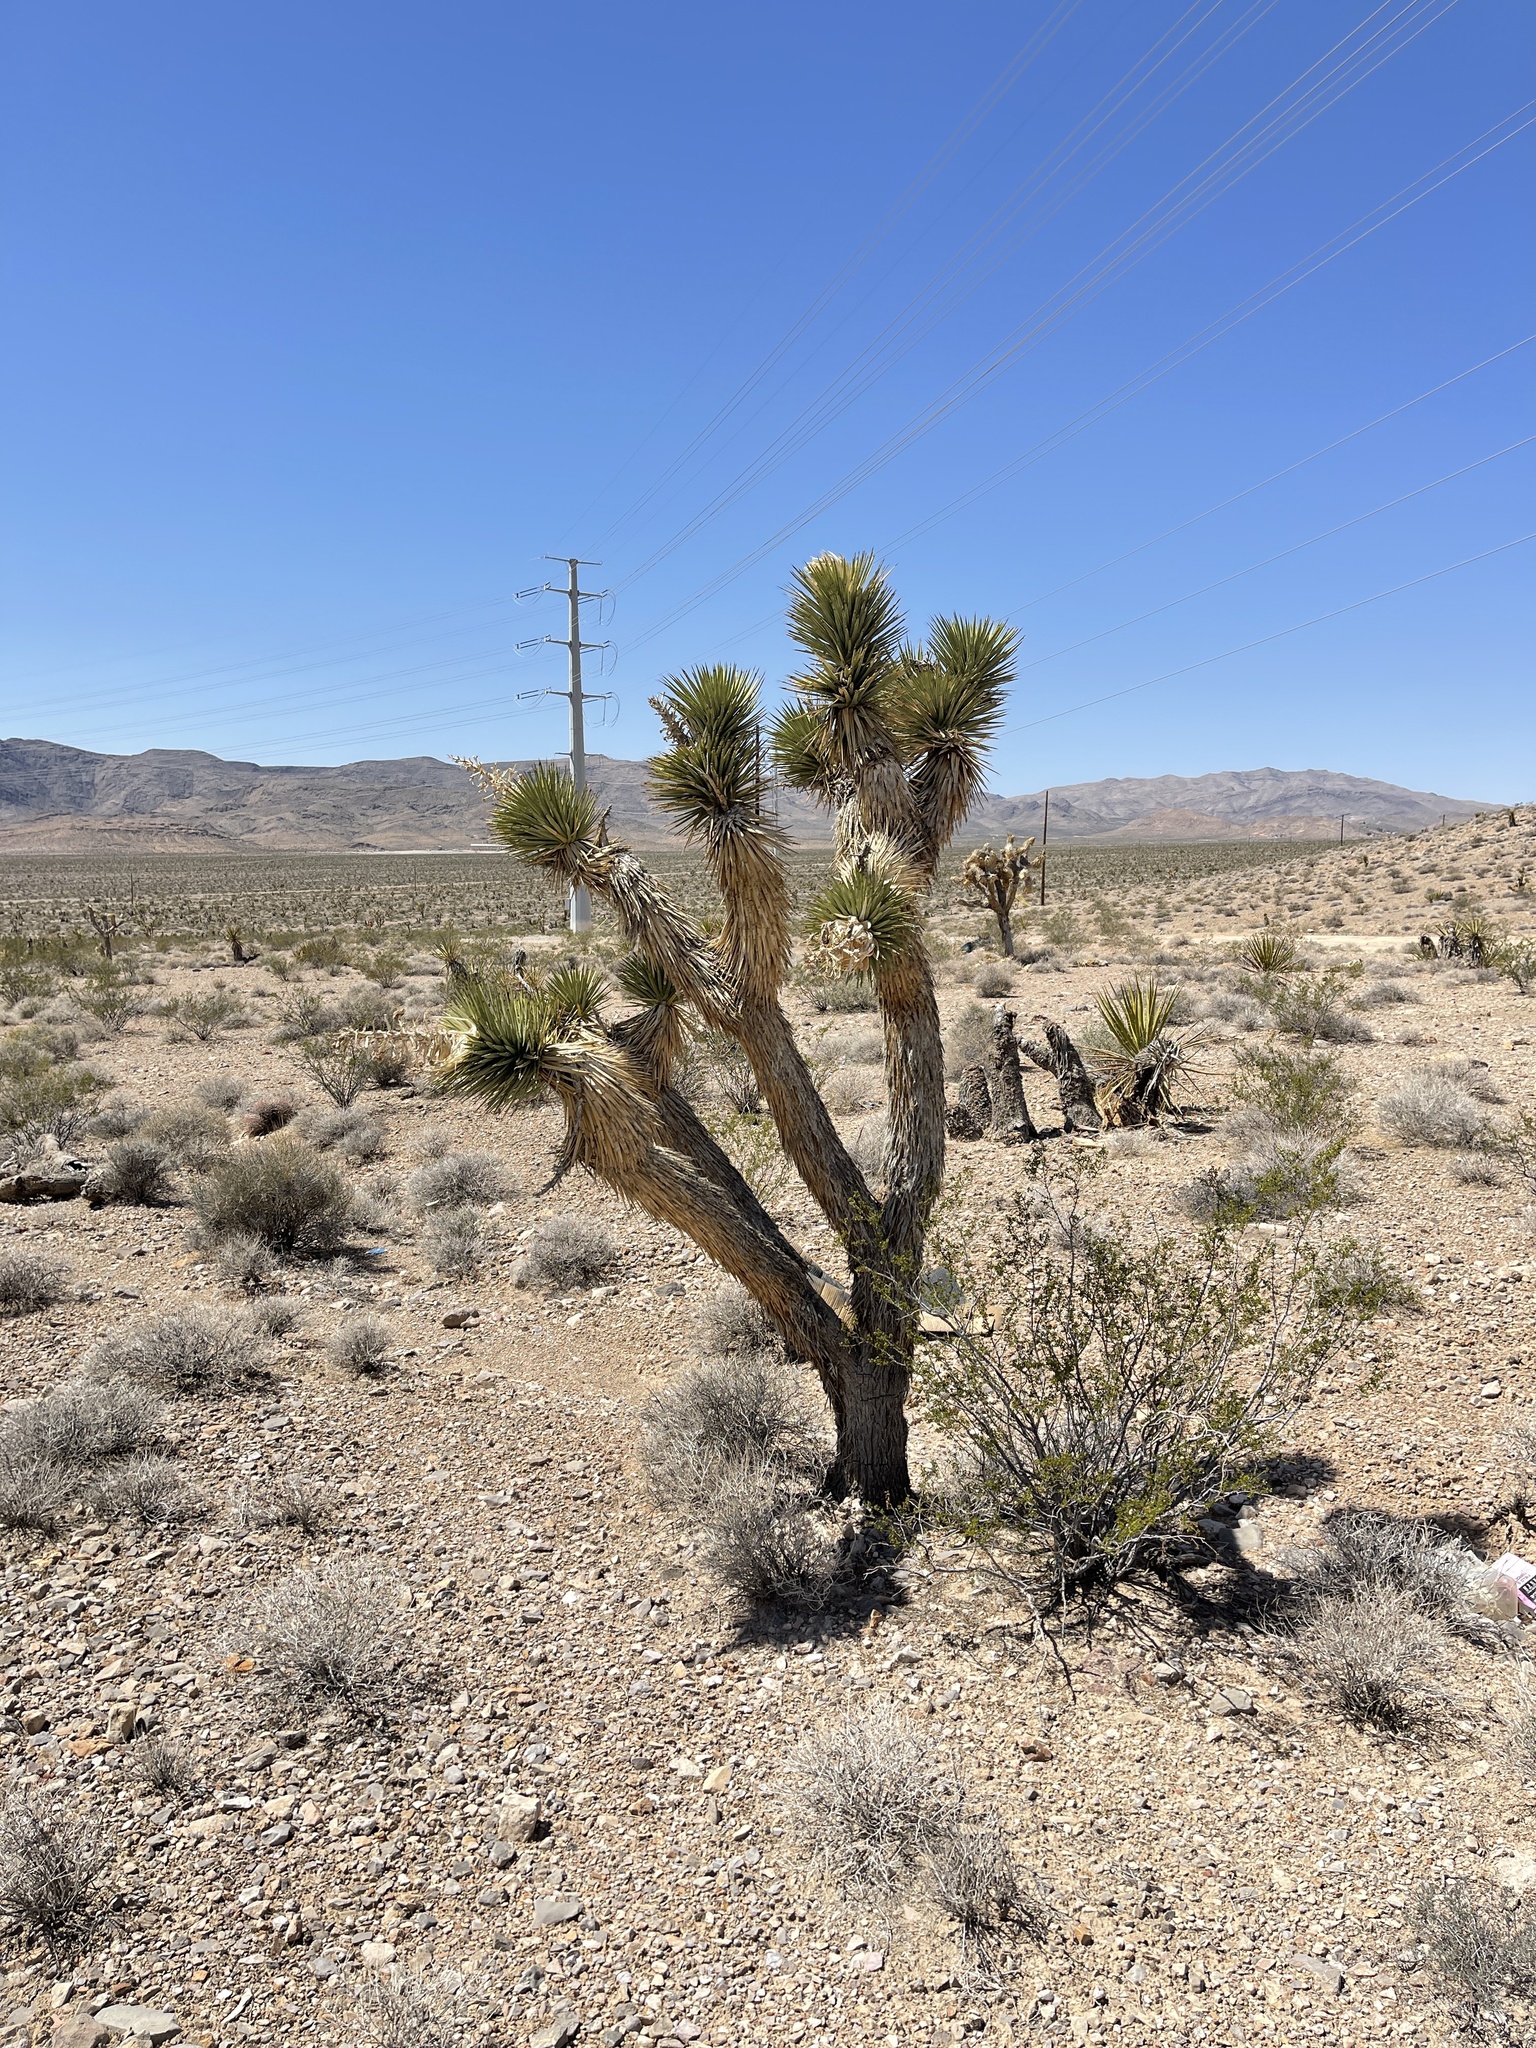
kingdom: Plantae
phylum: Tracheophyta
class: Liliopsida
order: Asparagales
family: Asparagaceae
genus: Yucca
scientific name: Yucca brevifolia
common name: Joshua tree
